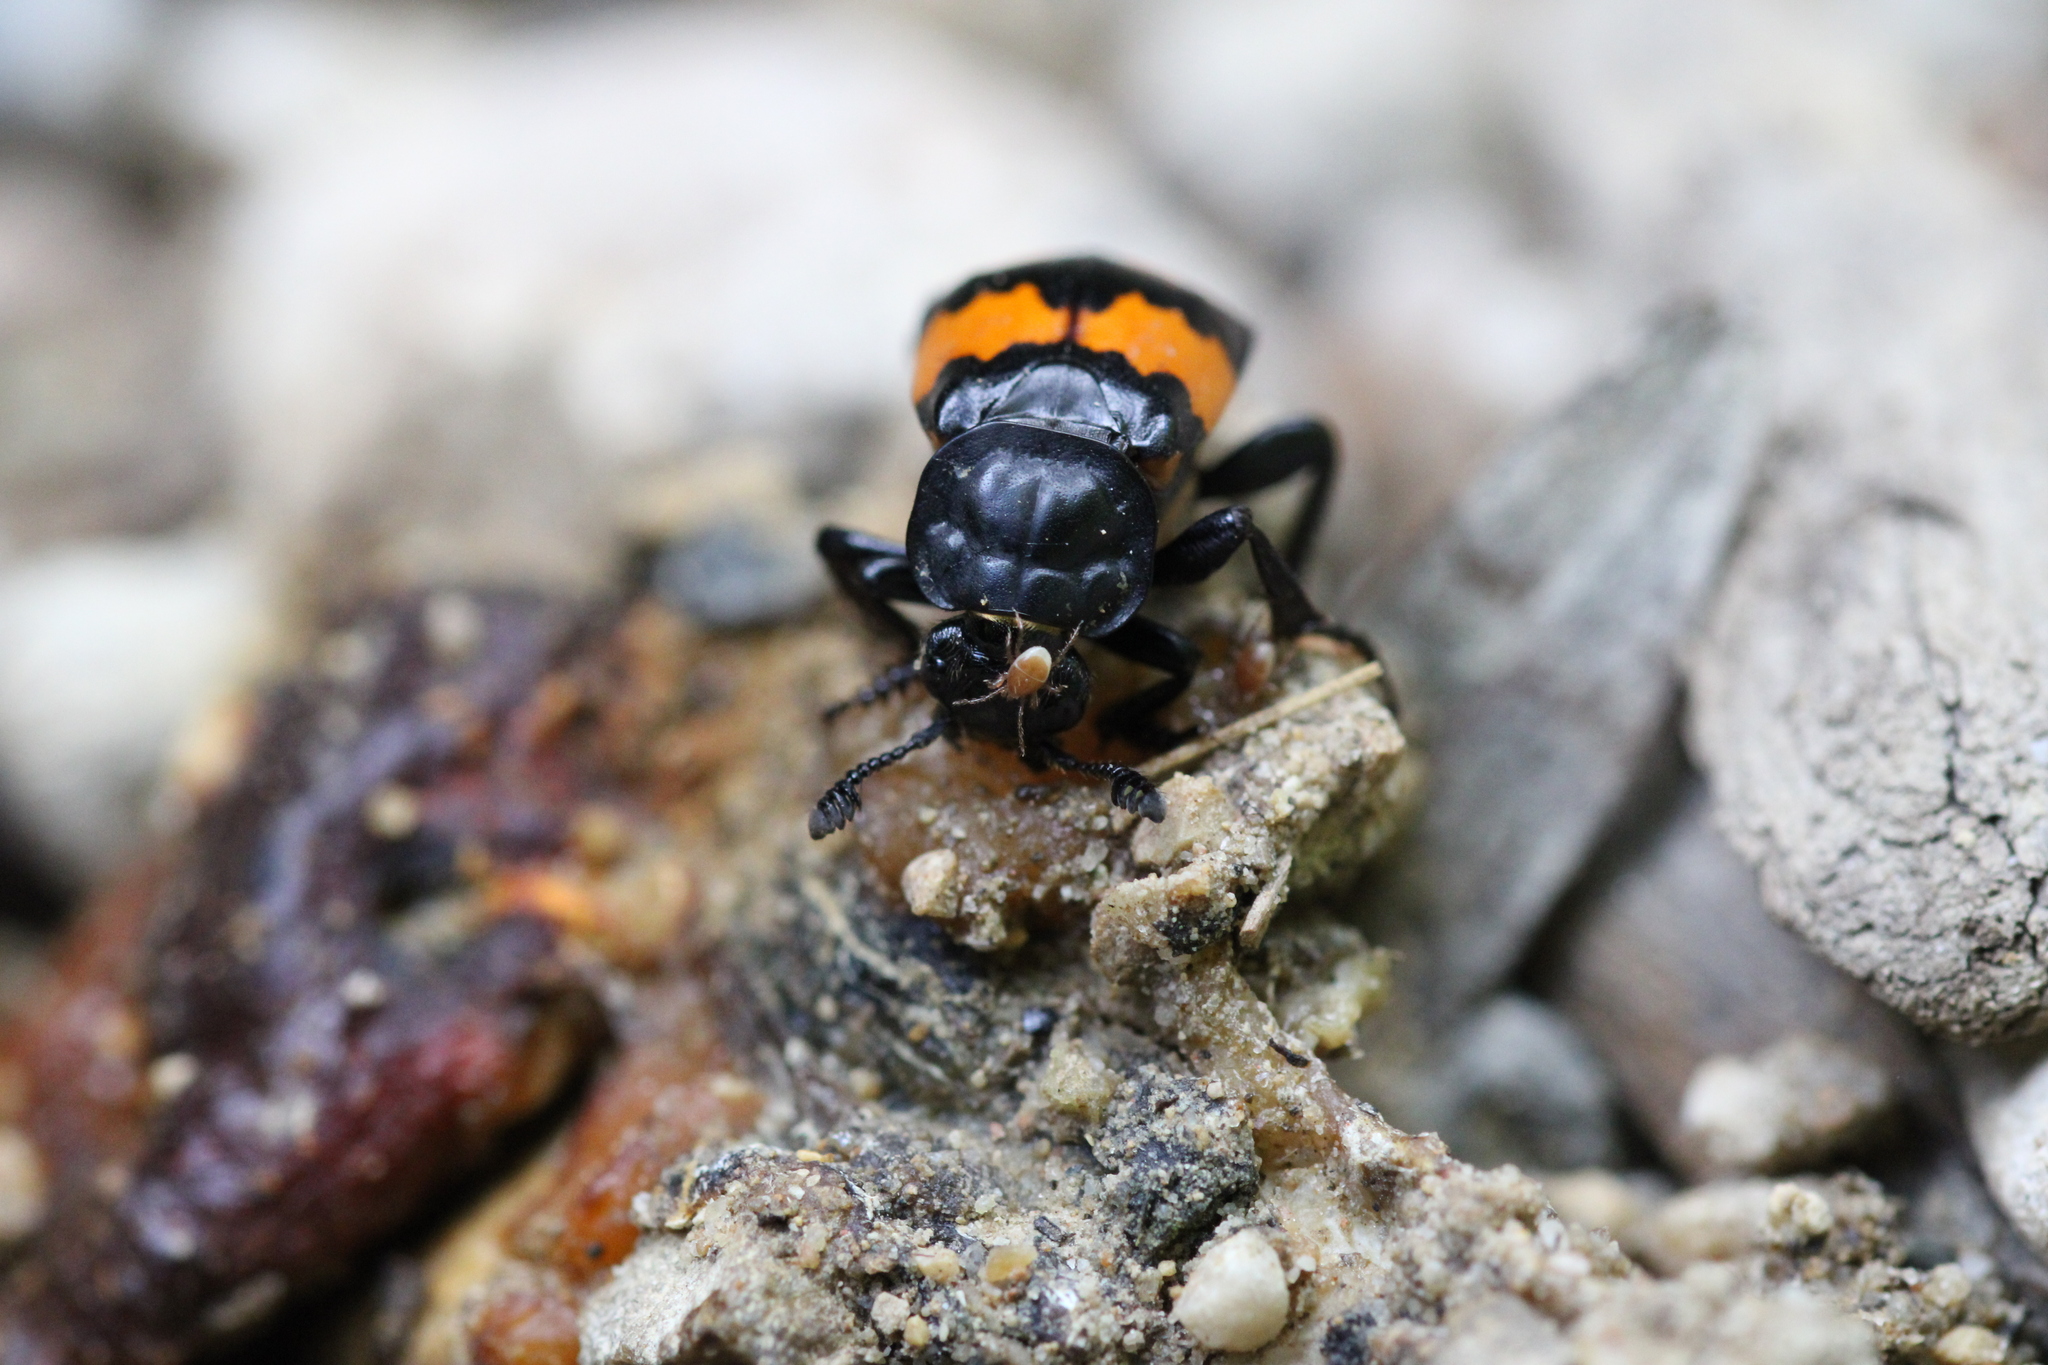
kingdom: Animalia
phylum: Arthropoda
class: Insecta
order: Coleoptera
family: Staphylinidae
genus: Nicrophorus
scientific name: Nicrophorus vespilloides
